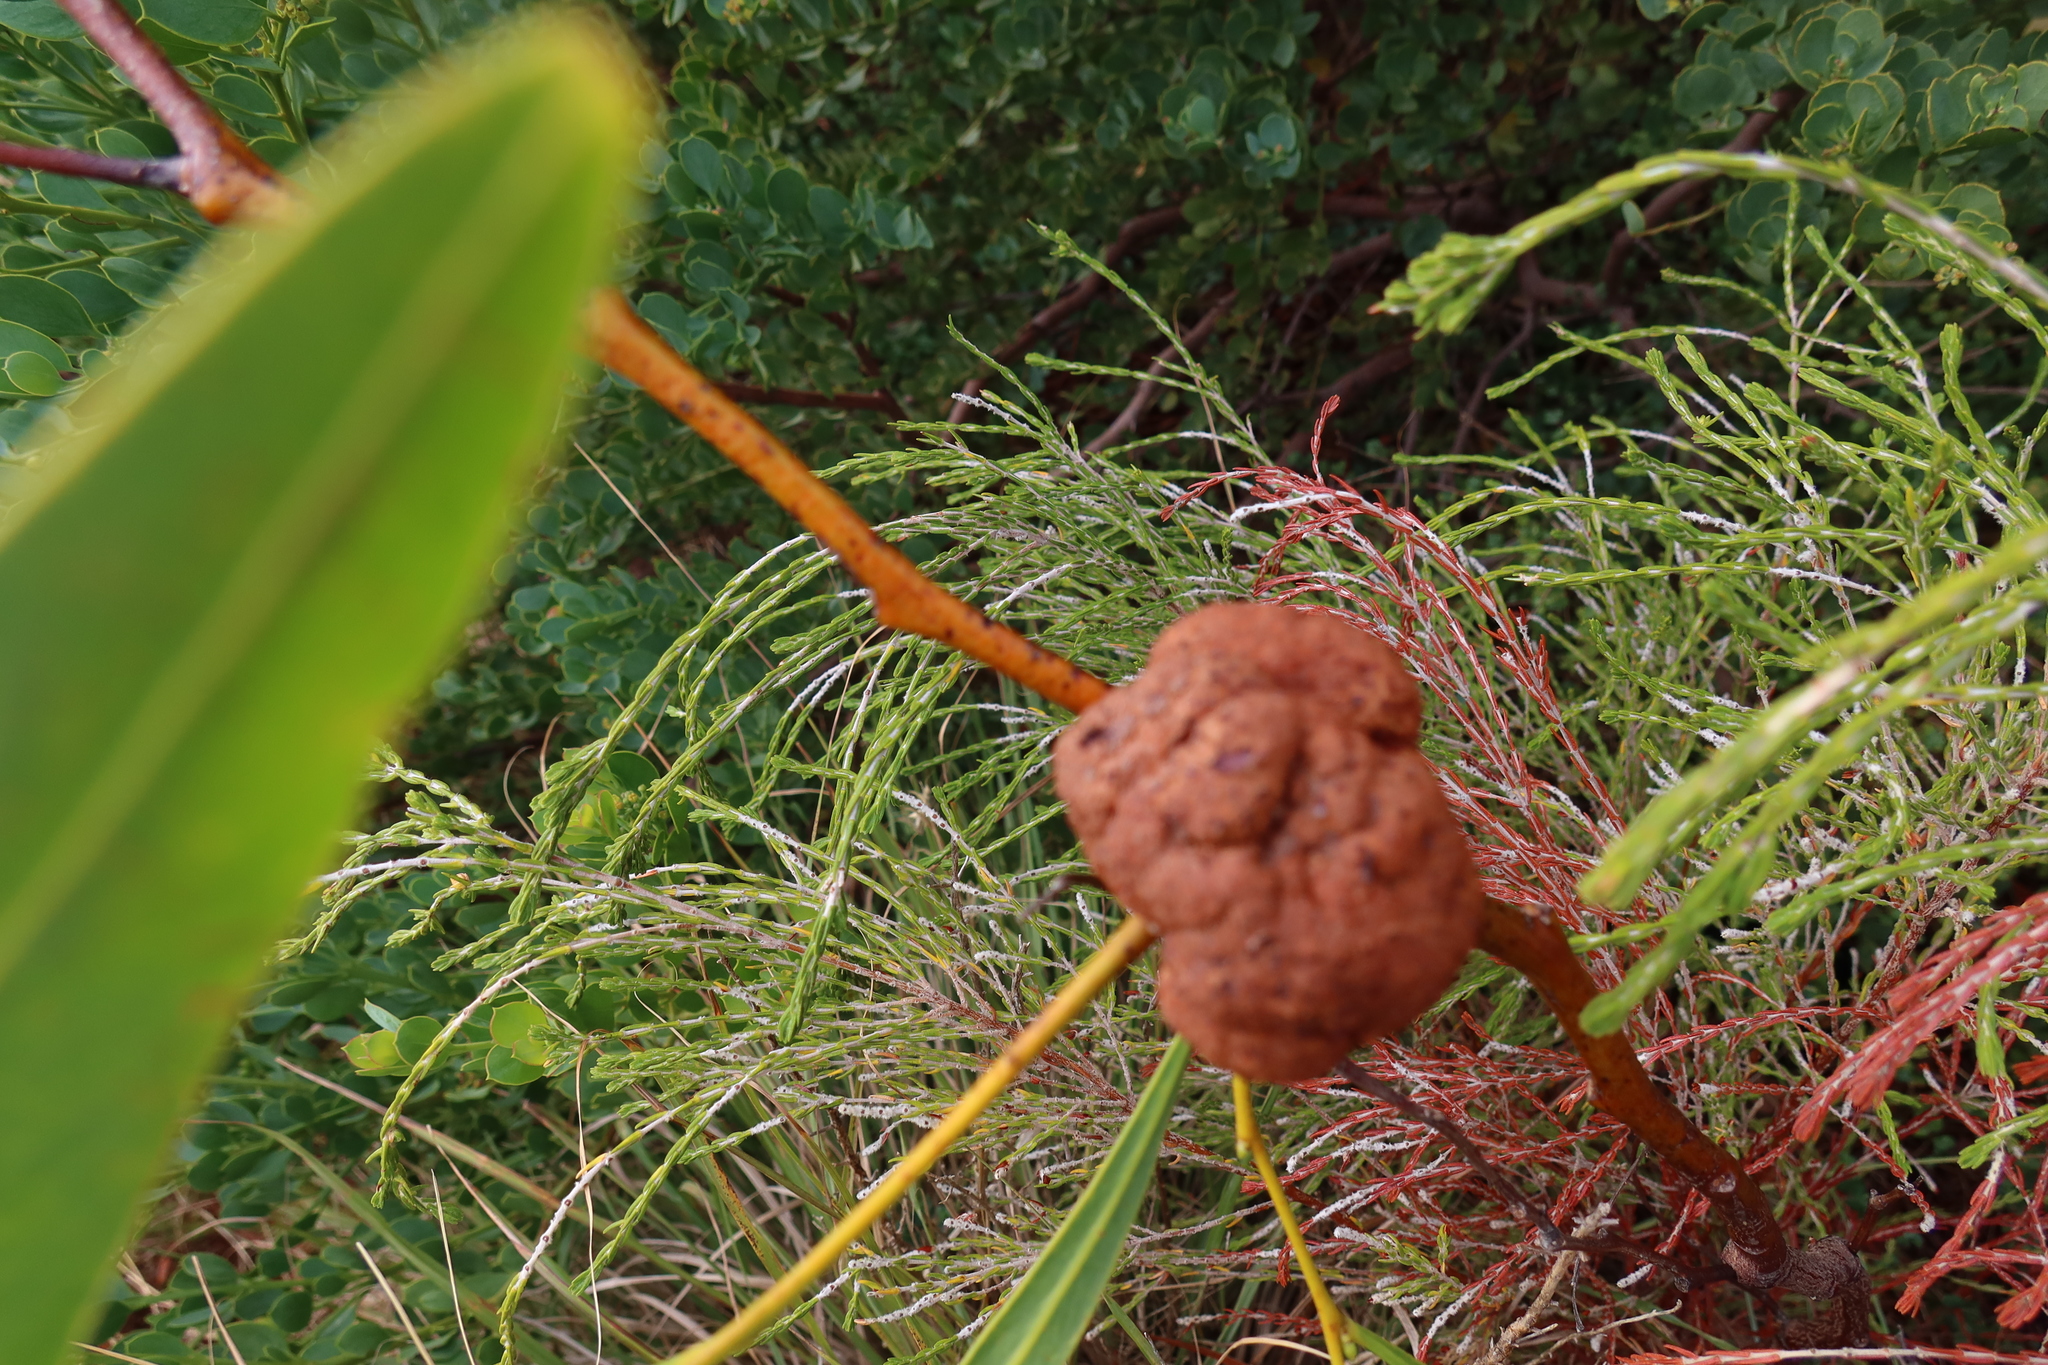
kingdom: Fungi
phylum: Basidiomycota
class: Pucciniomycetes
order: Pucciniales
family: Uromycladiaceae
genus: Uromycladium
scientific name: Uromycladium morrisii
